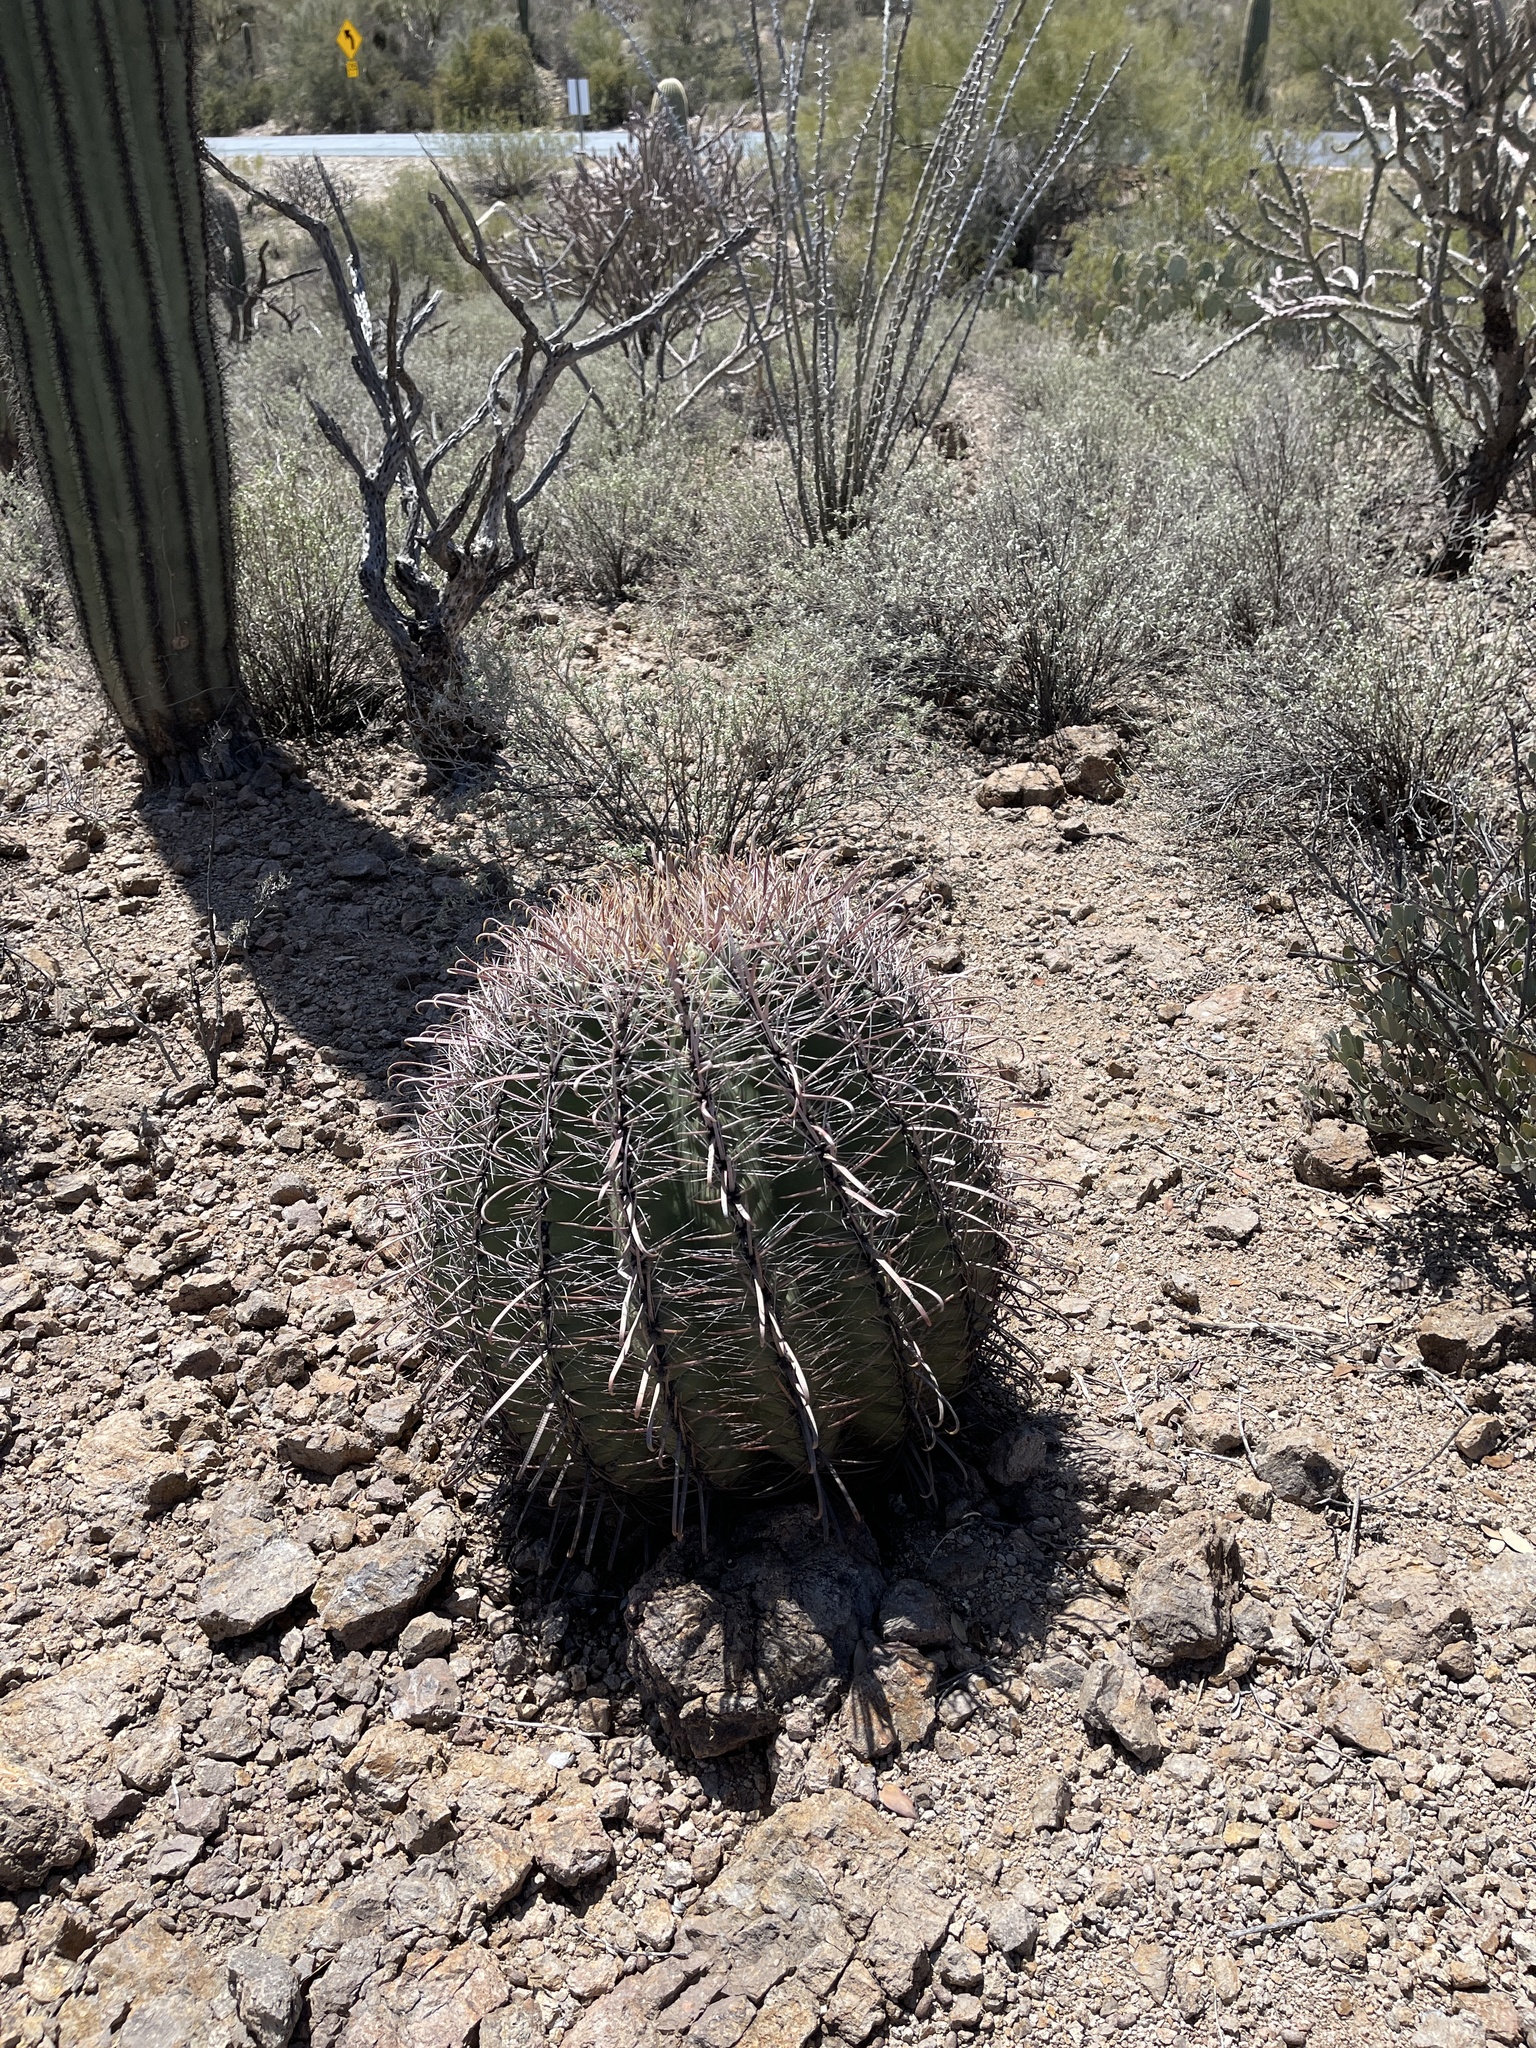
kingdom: Plantae
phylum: Tracheophyta
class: Magnoliopsida
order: Caryophyllales
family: Cactaceae
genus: Ferocactus
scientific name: Ferocactus wislizeni
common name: Candy barrel cactus
